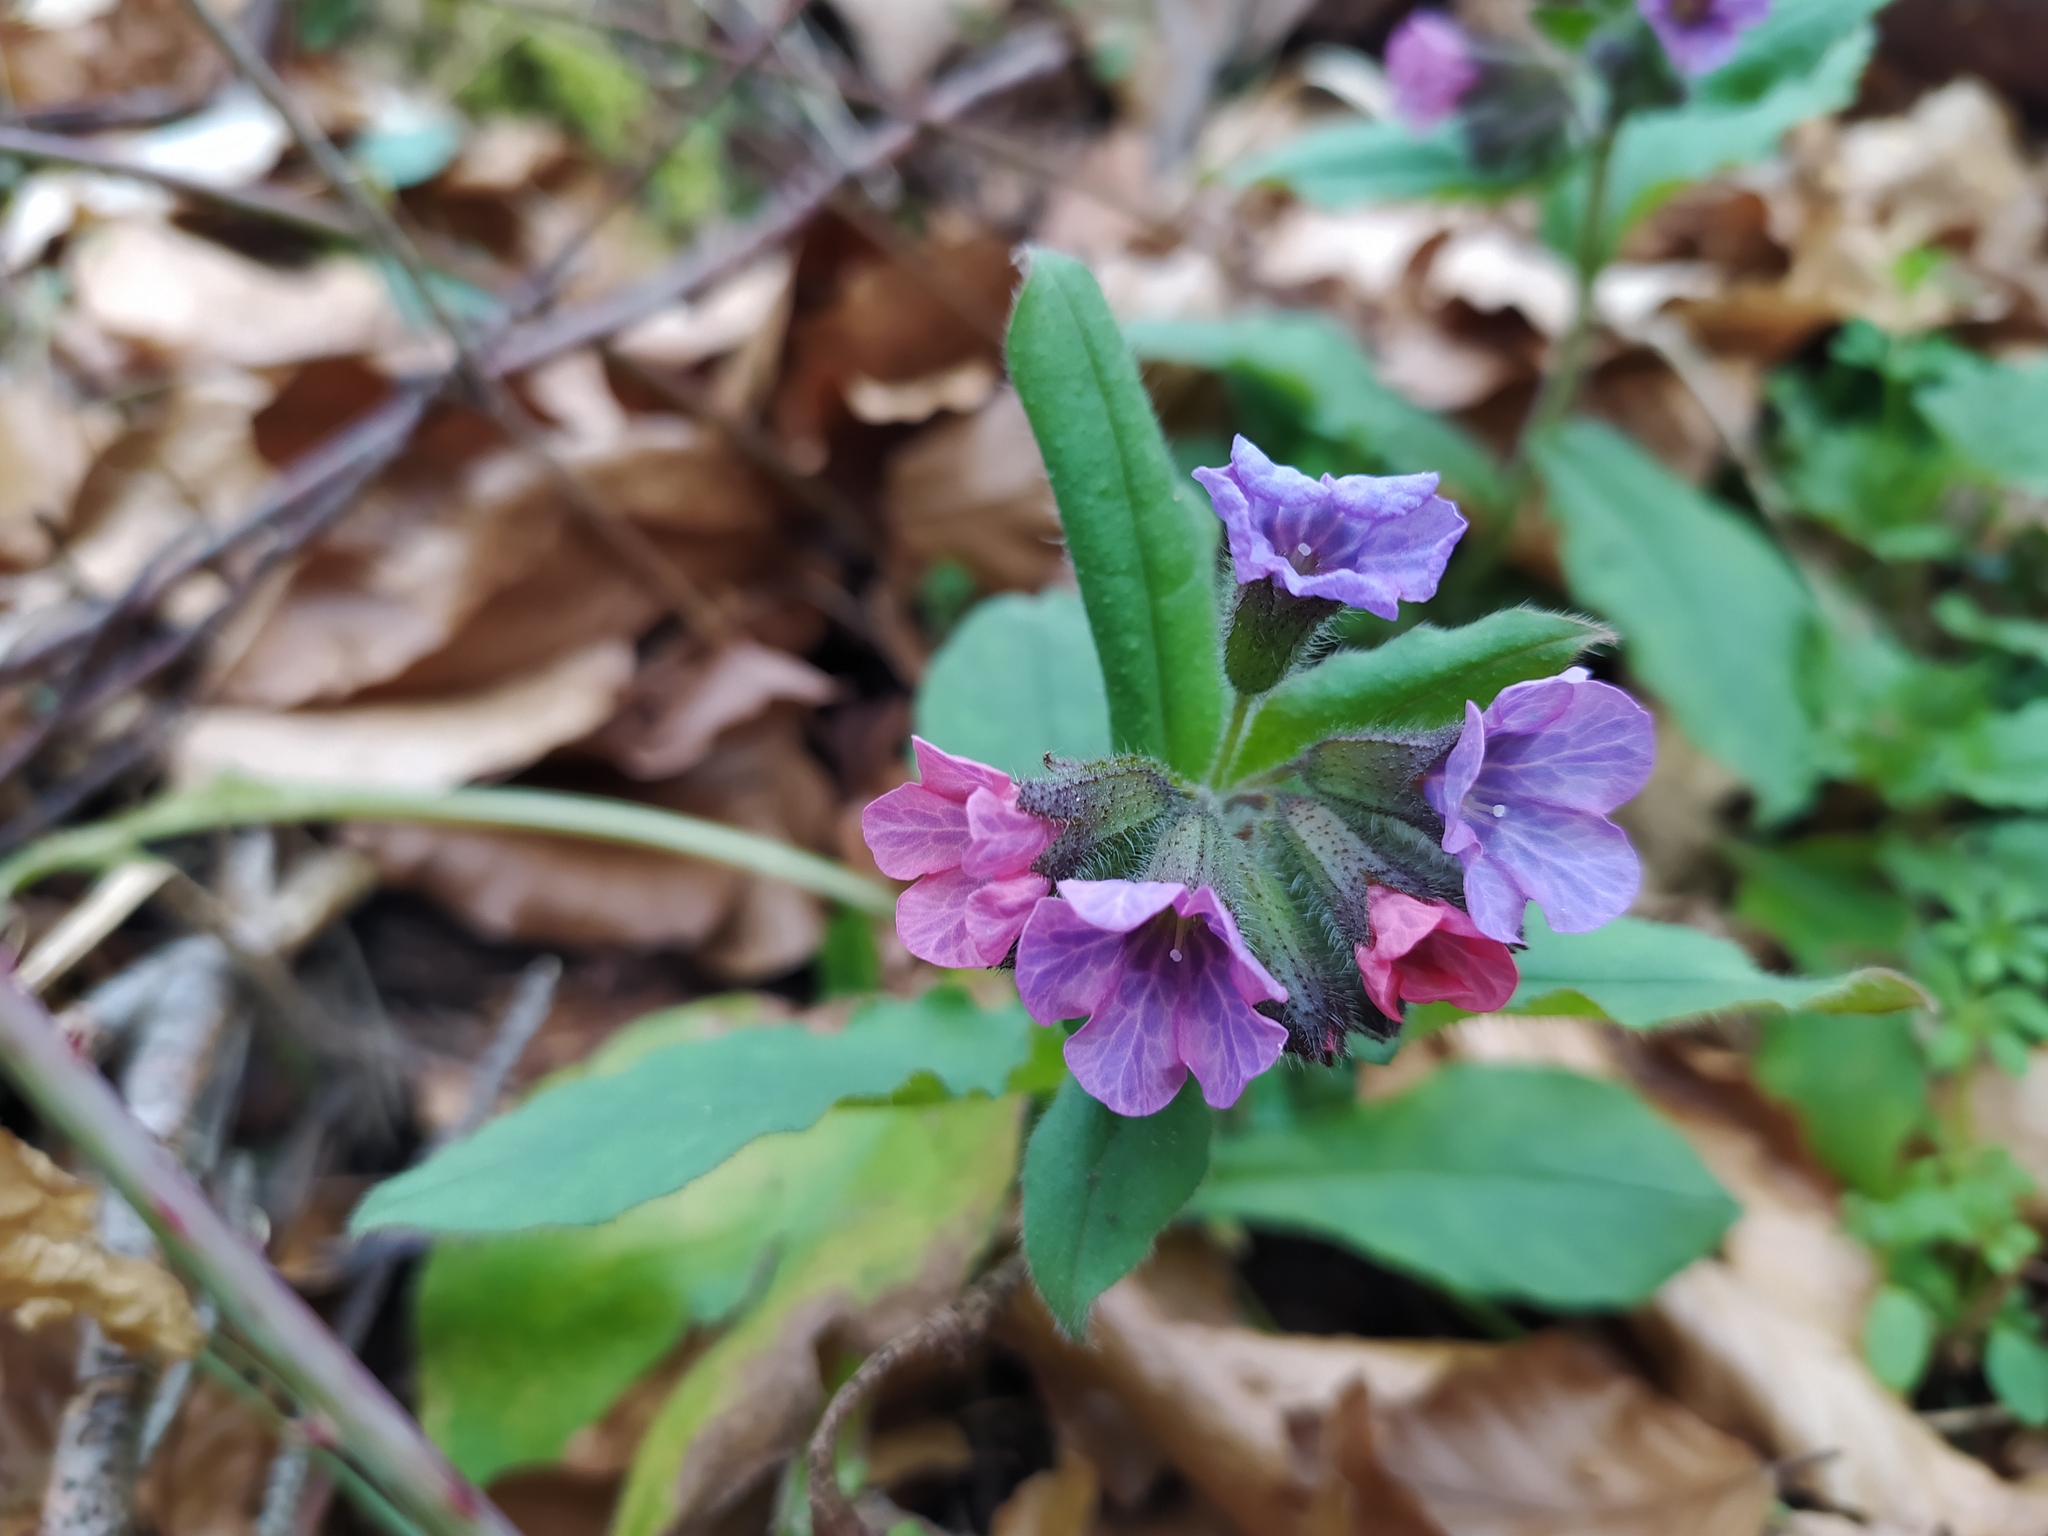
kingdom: Plantae
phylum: Tracheophyta
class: Magnoliopsida
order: Boraginales
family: Boraginaceae
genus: Pulmonaria
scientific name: Pulmonaria obscura
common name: Suffolk lungwort
